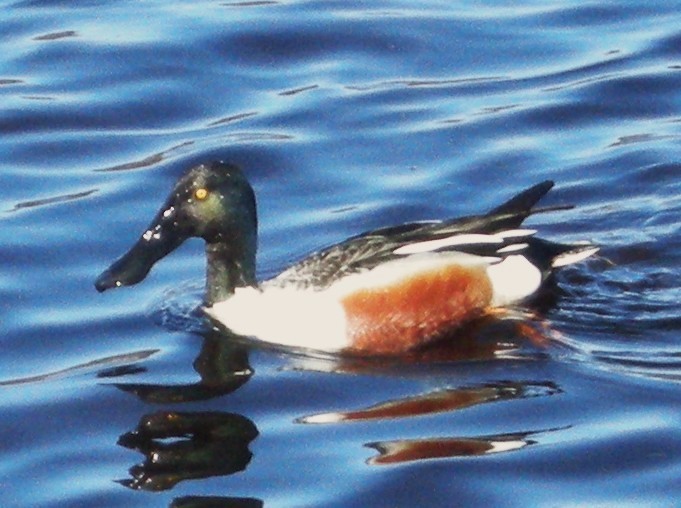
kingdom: Animalia
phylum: Chordata
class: Aves
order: Anseriformes
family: Anatidae
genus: Spatula
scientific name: Spatula clypeata
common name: Northern shoveler
